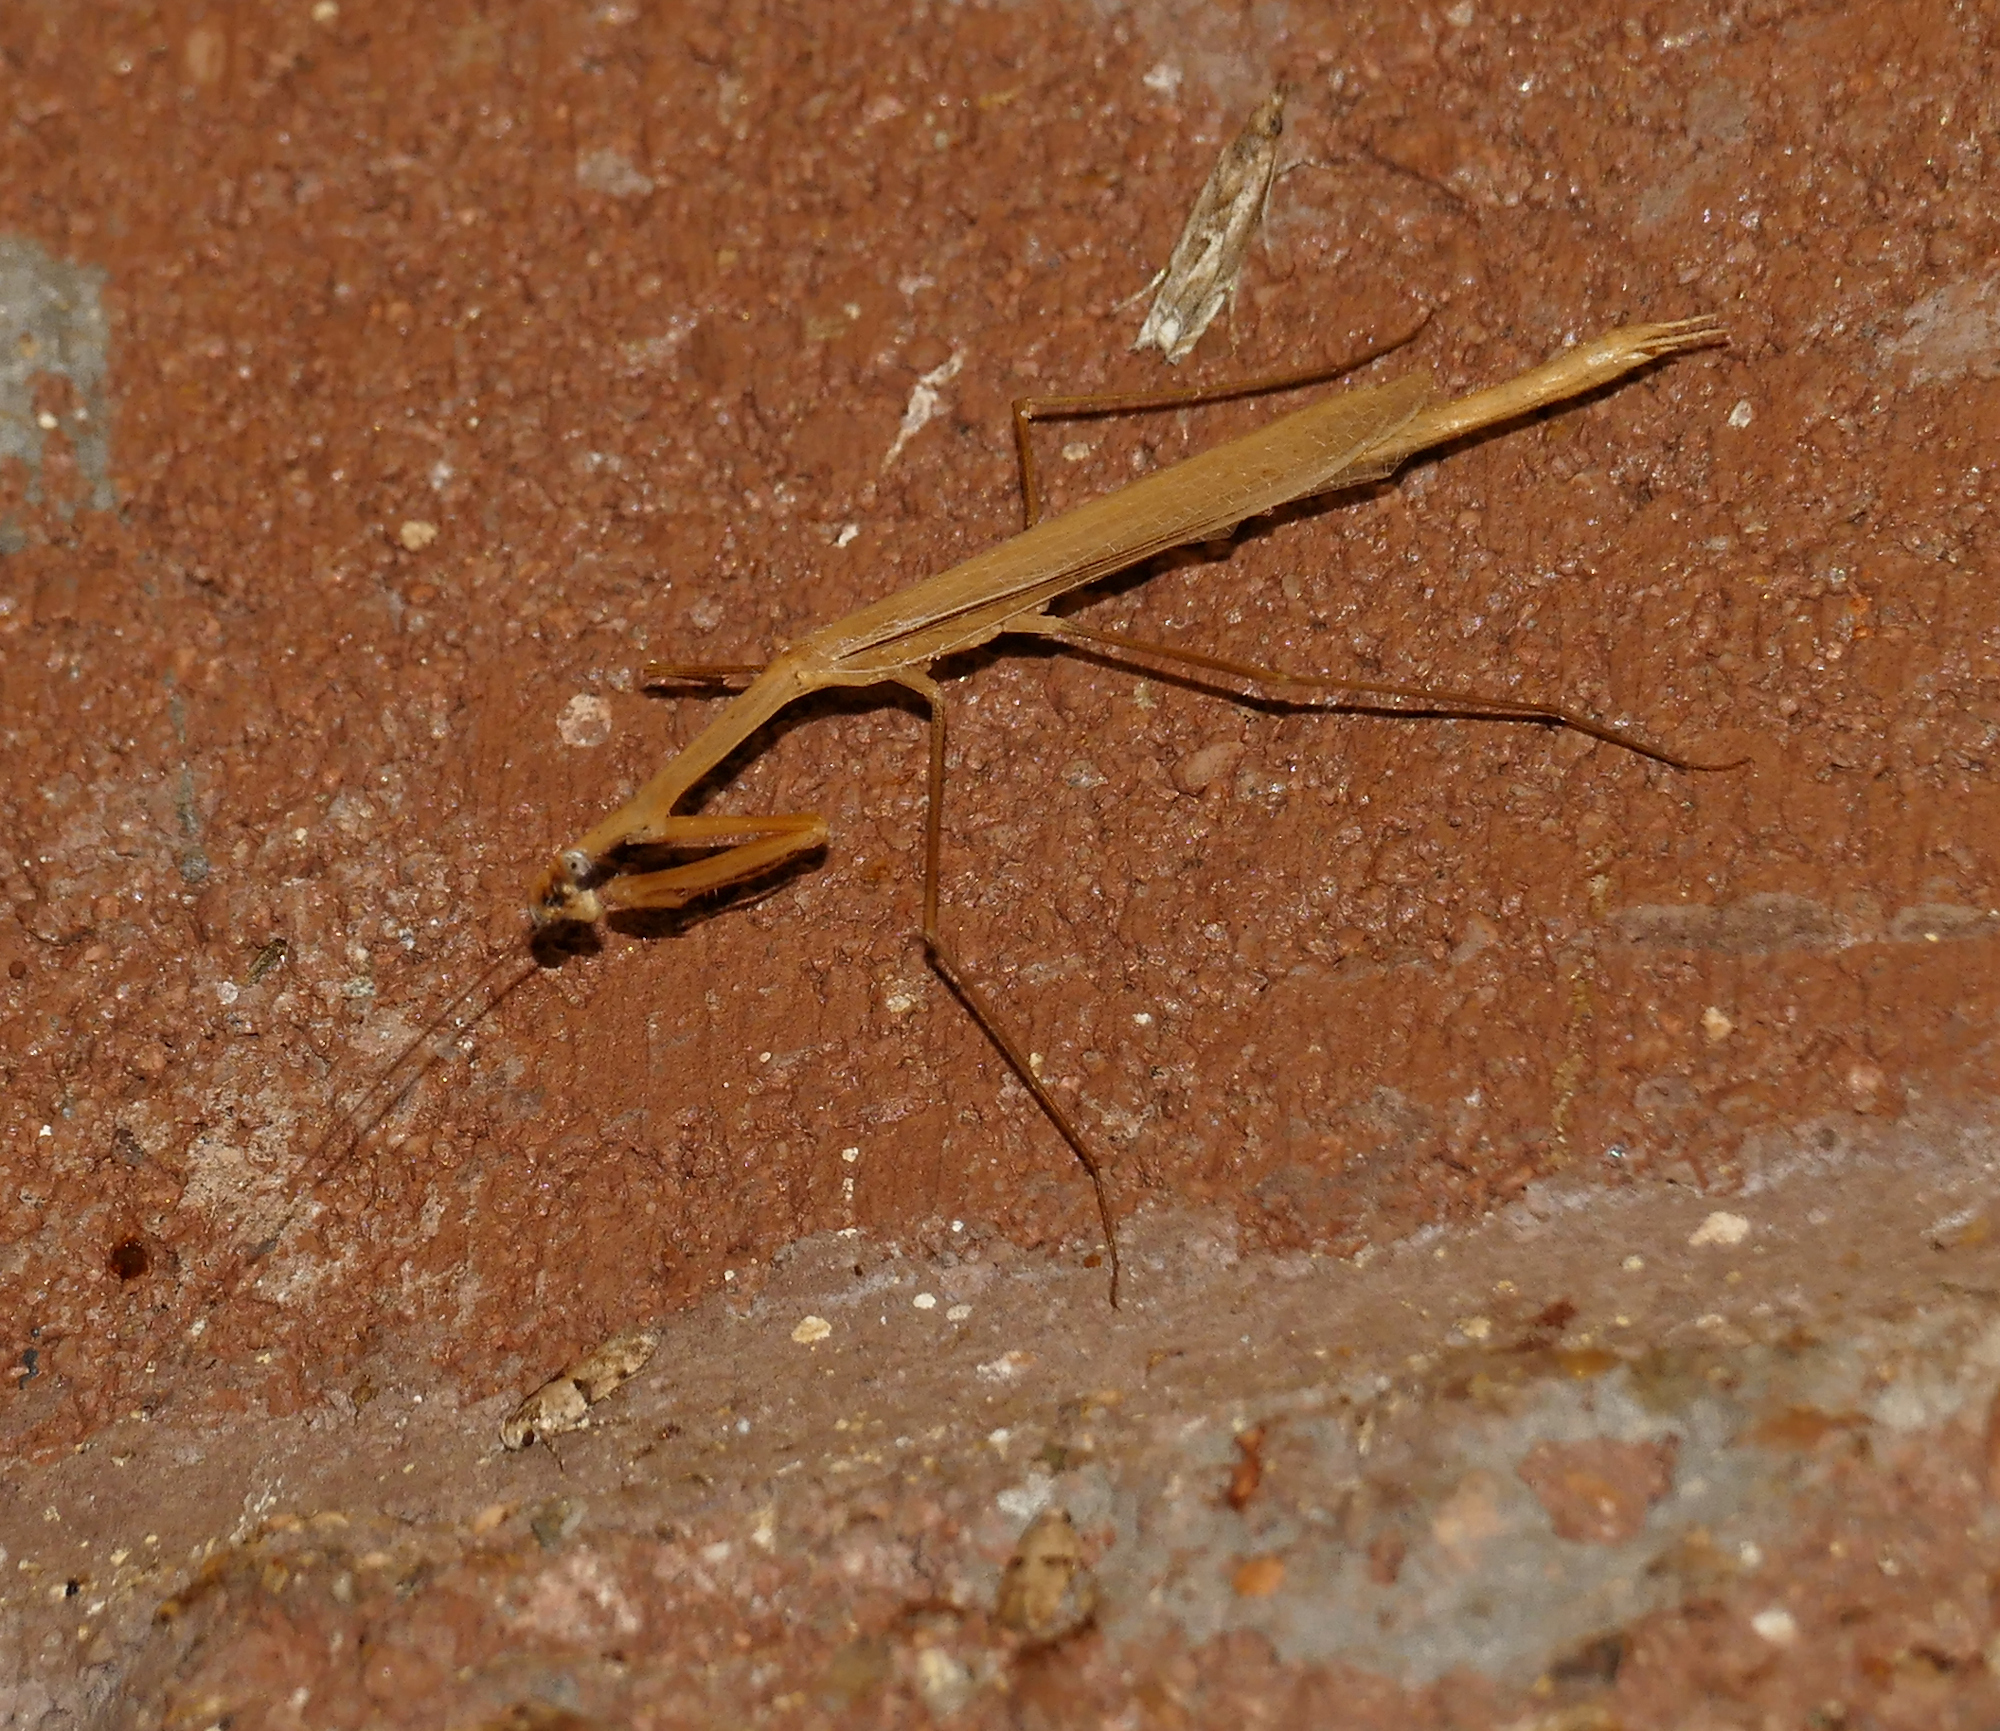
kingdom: Animalia
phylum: Arthropoda
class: Insecta
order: Mantodea
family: Thespidae
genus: Bistanta
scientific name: Bistanta herema
